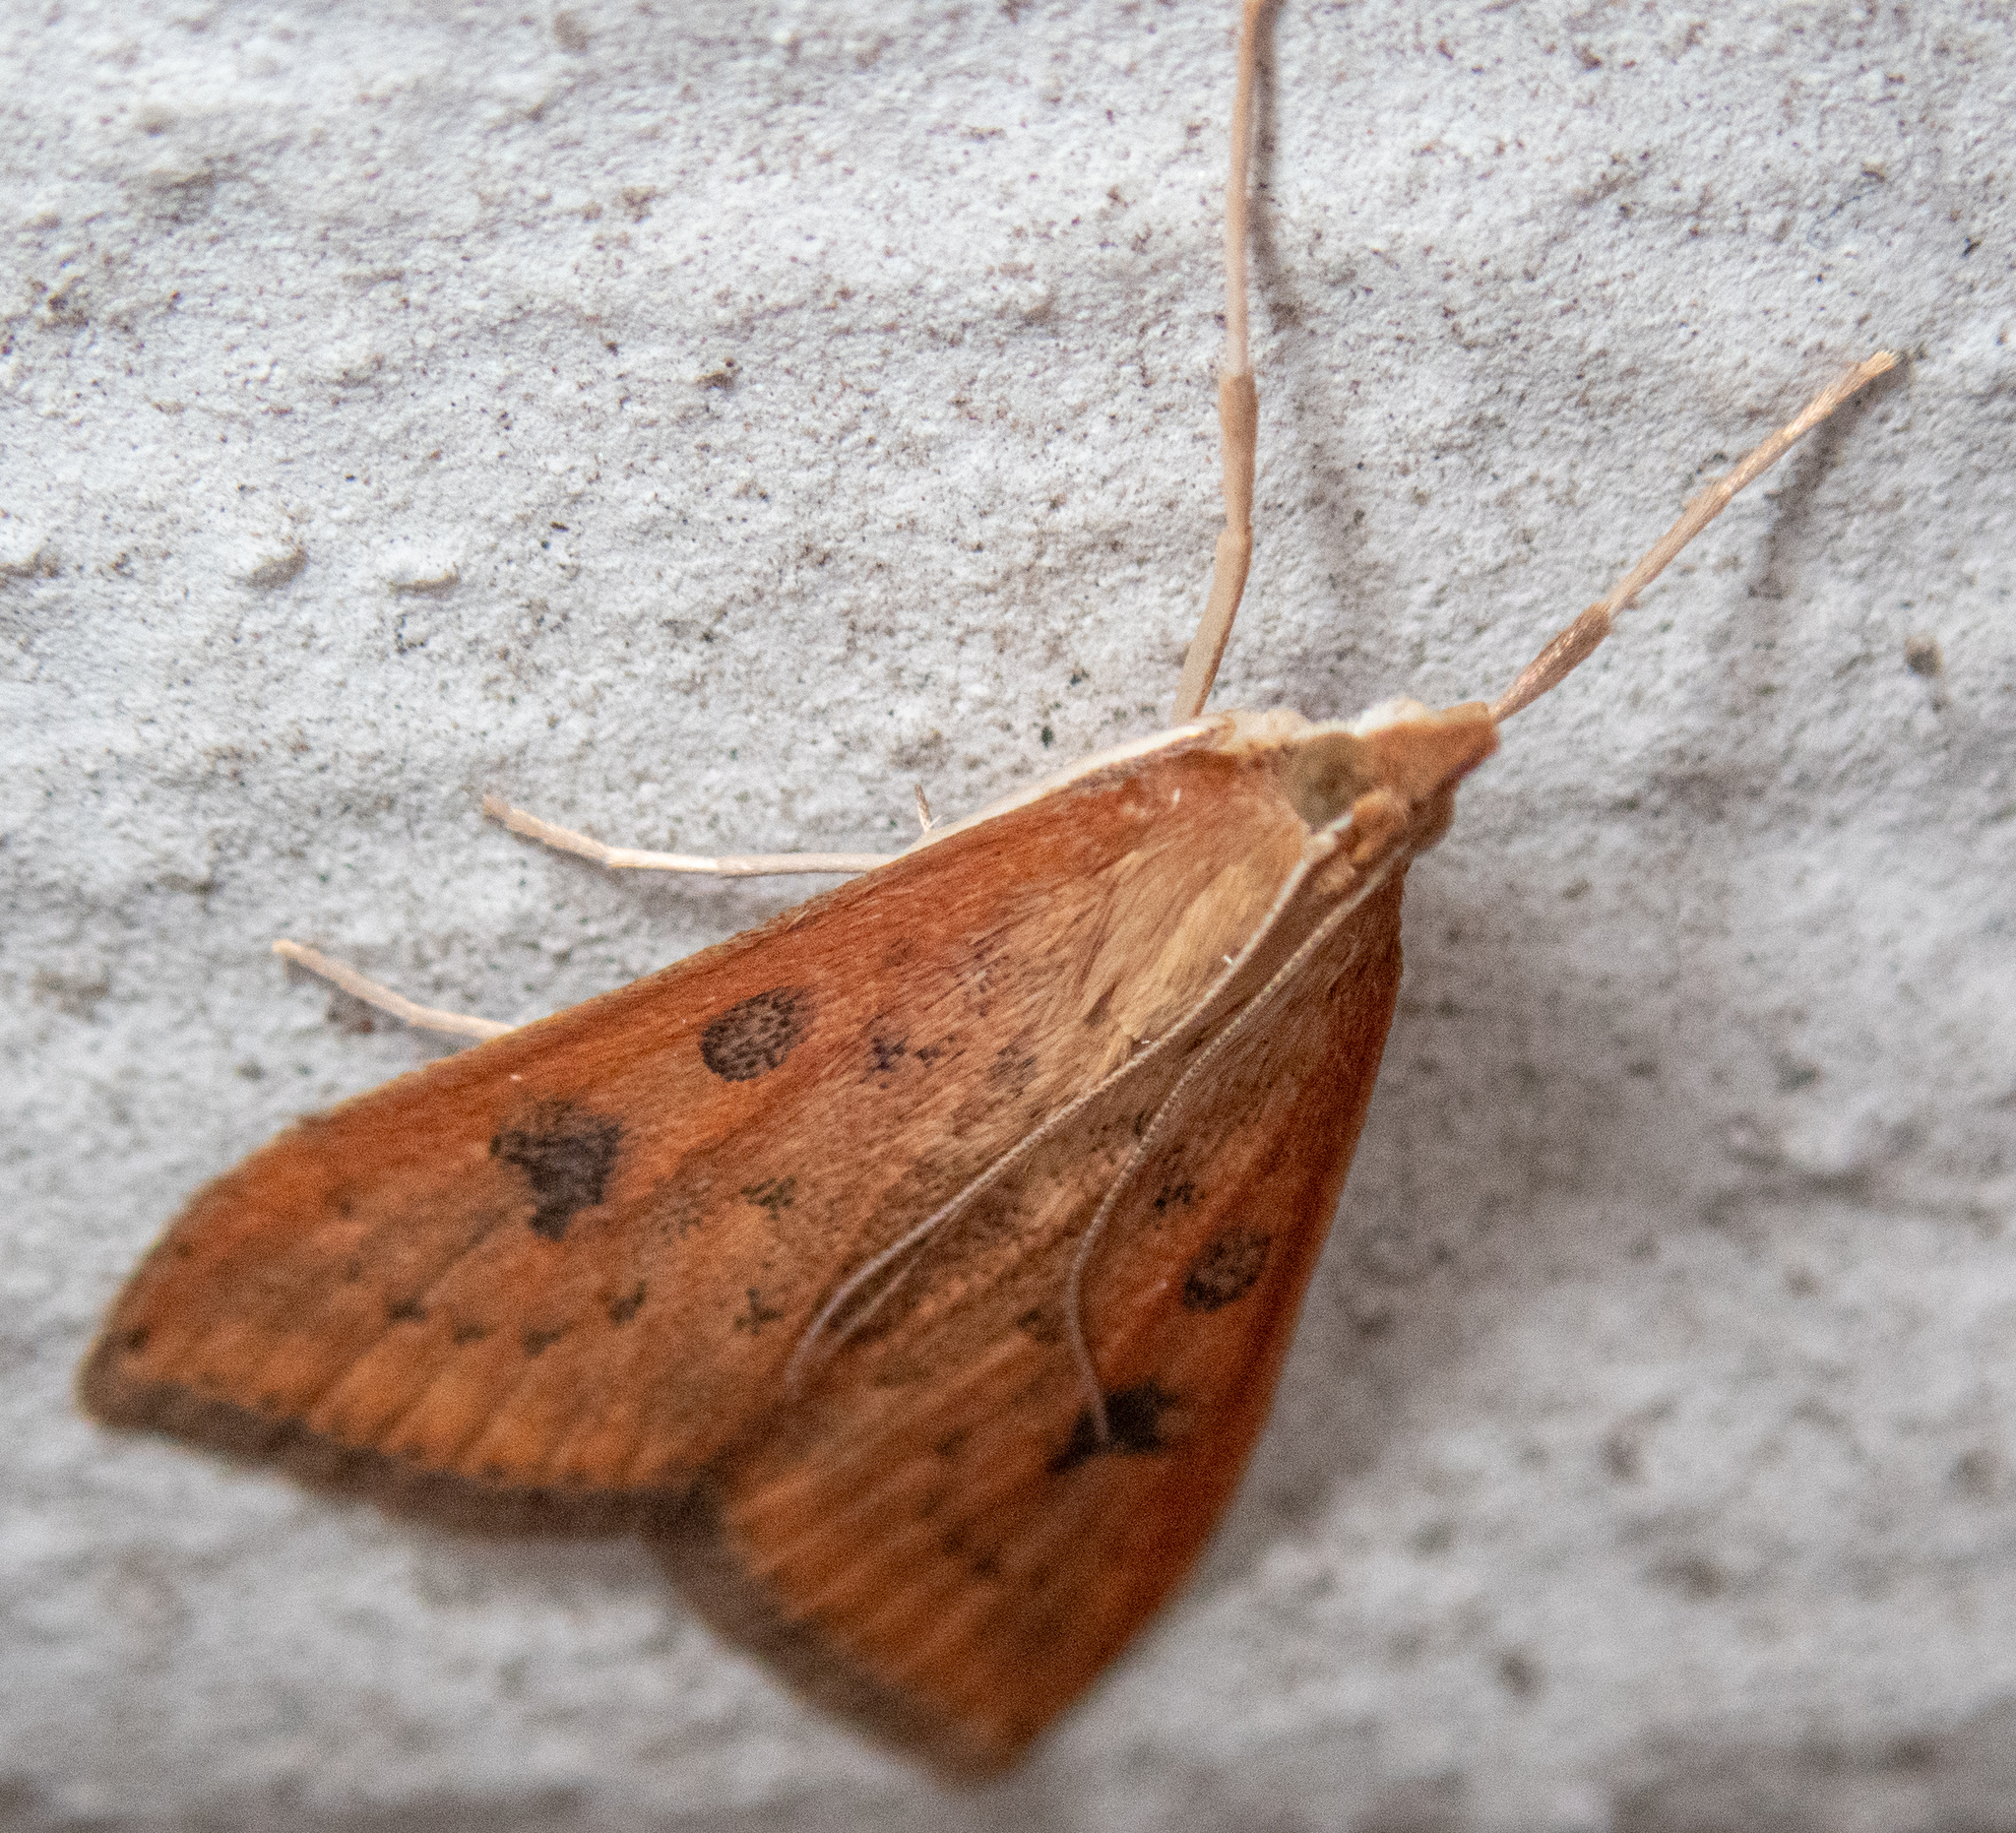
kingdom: Animalia
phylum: Arthropoda
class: Insecta
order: Lepidoptera
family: Crambidae
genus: Udea
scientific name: Udea ferrugalis
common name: Rusty dot
